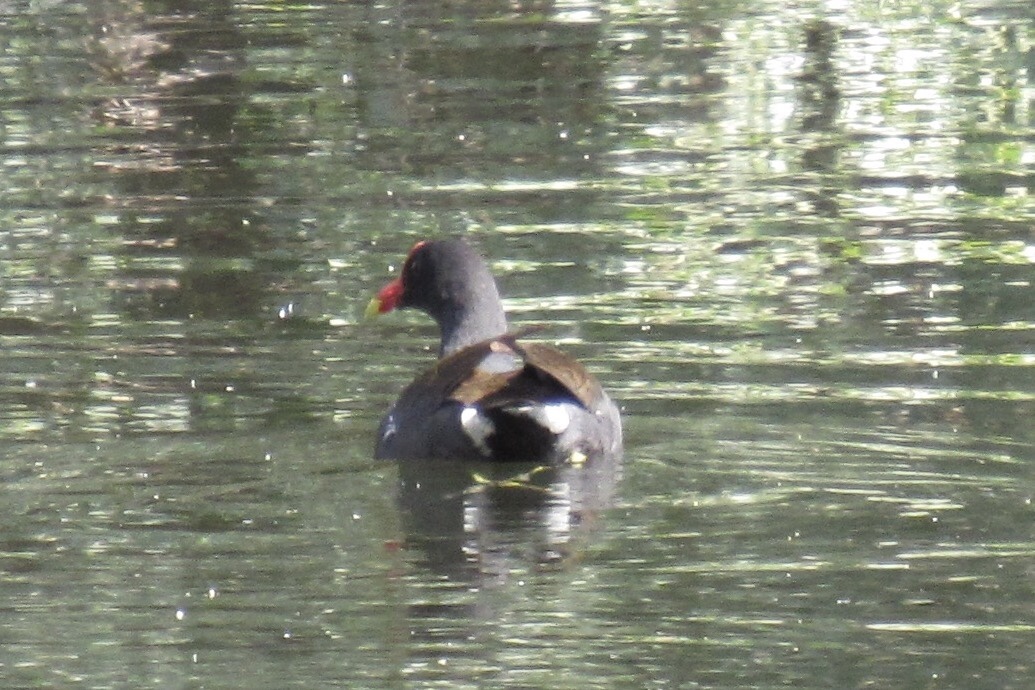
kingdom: Animalia
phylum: Chordata
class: Aves
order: Gruiformes
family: Rallidae
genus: Gallinula
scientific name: Gallinula chloropus
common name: Common moorhen
